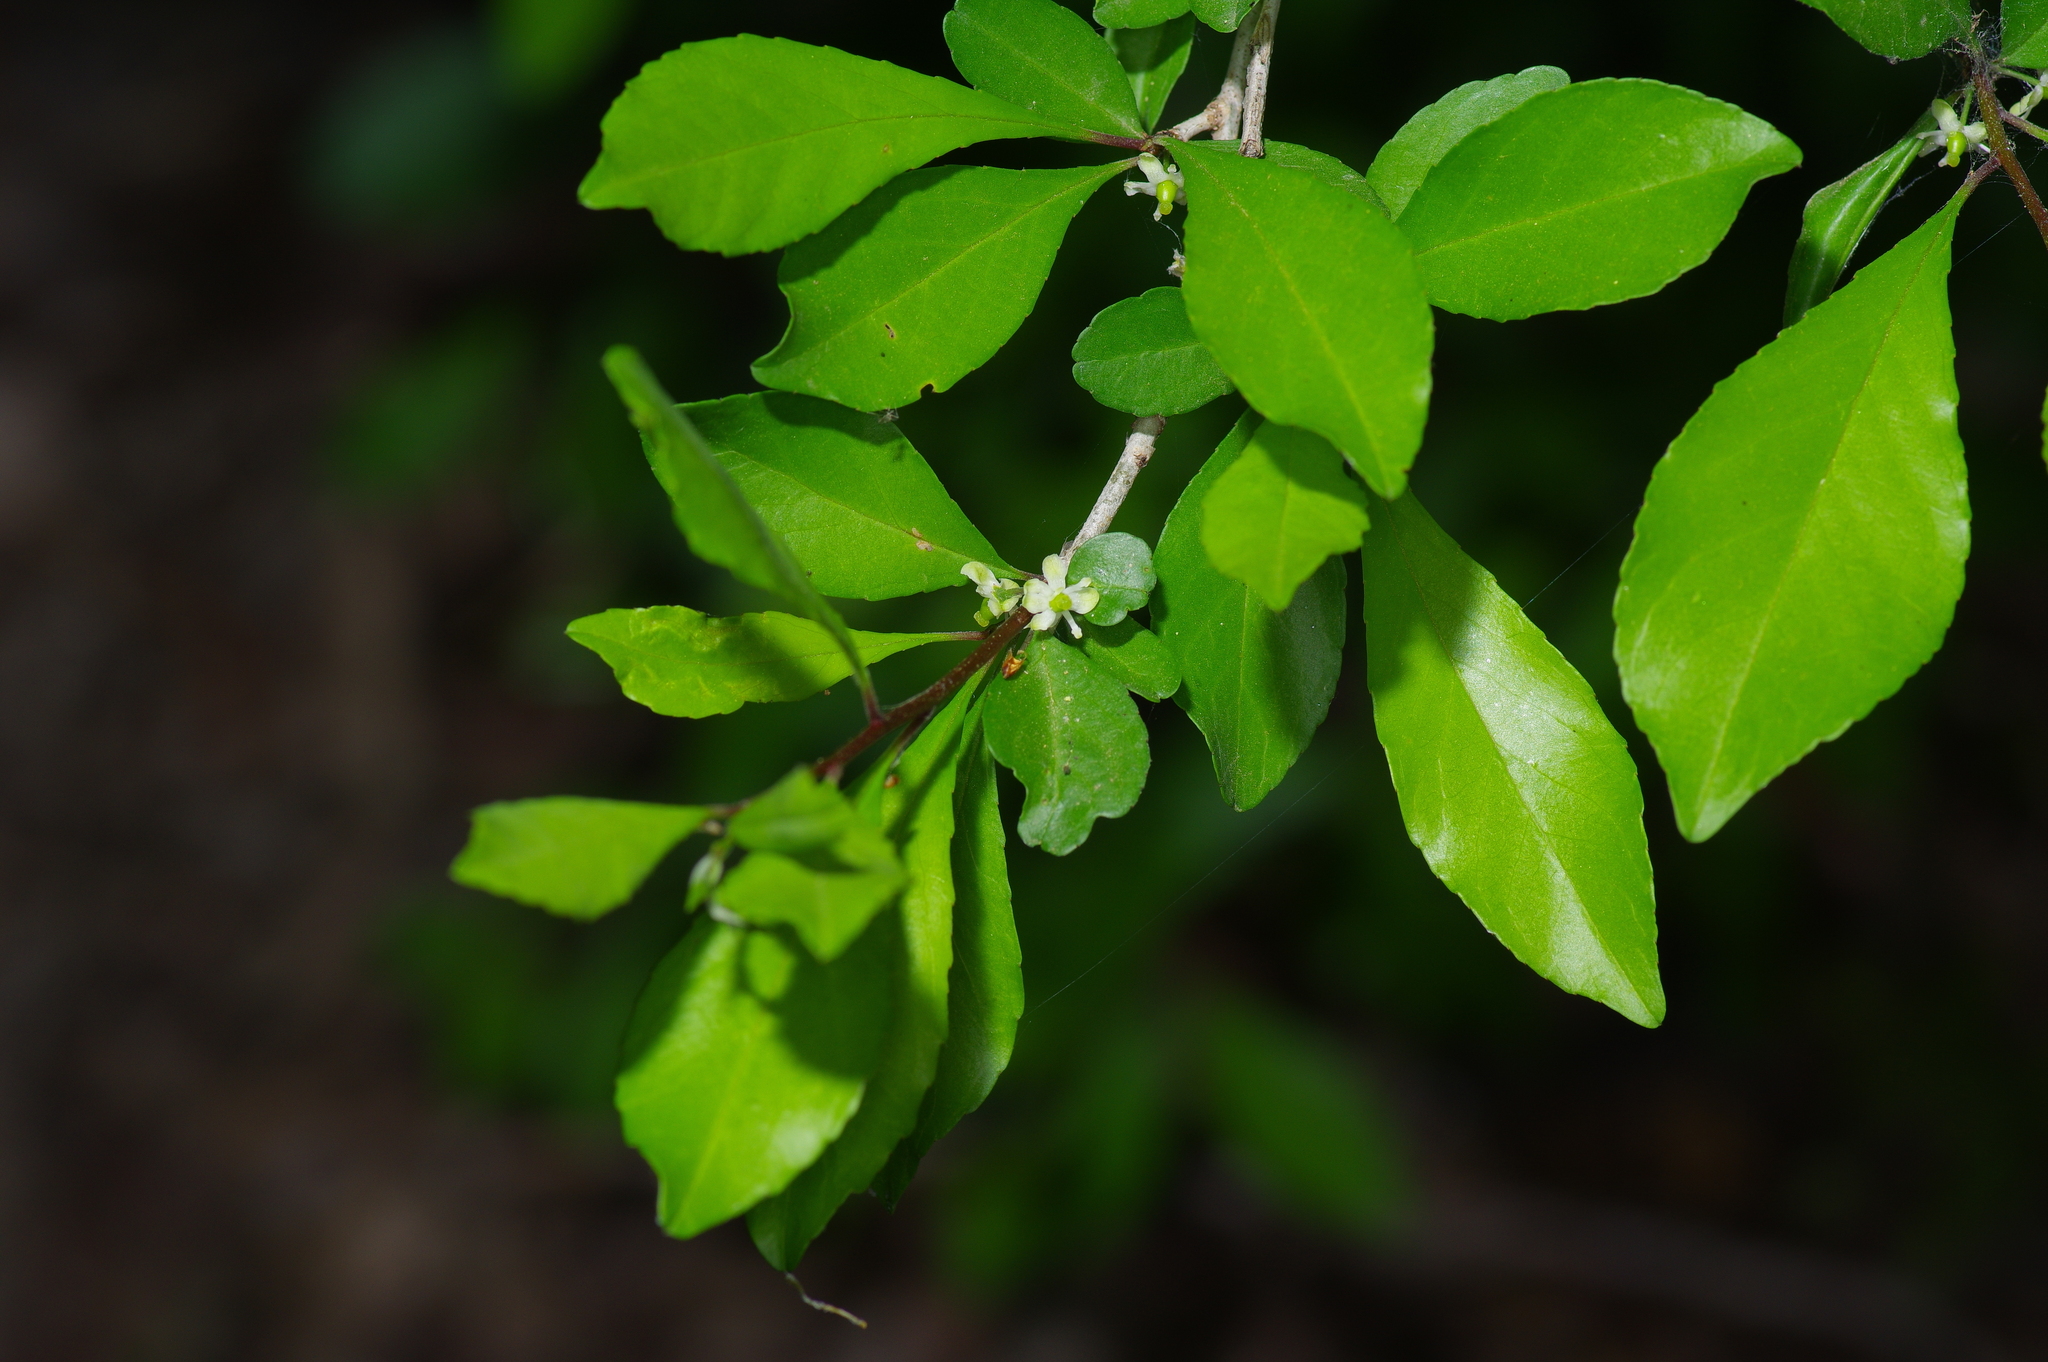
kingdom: Plantae
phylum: Tracheophyta
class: Magnoliopsida
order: Aquifoliales
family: Aquifoliaceae
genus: Ilex
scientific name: Ilex decidua
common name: Possum-haw
